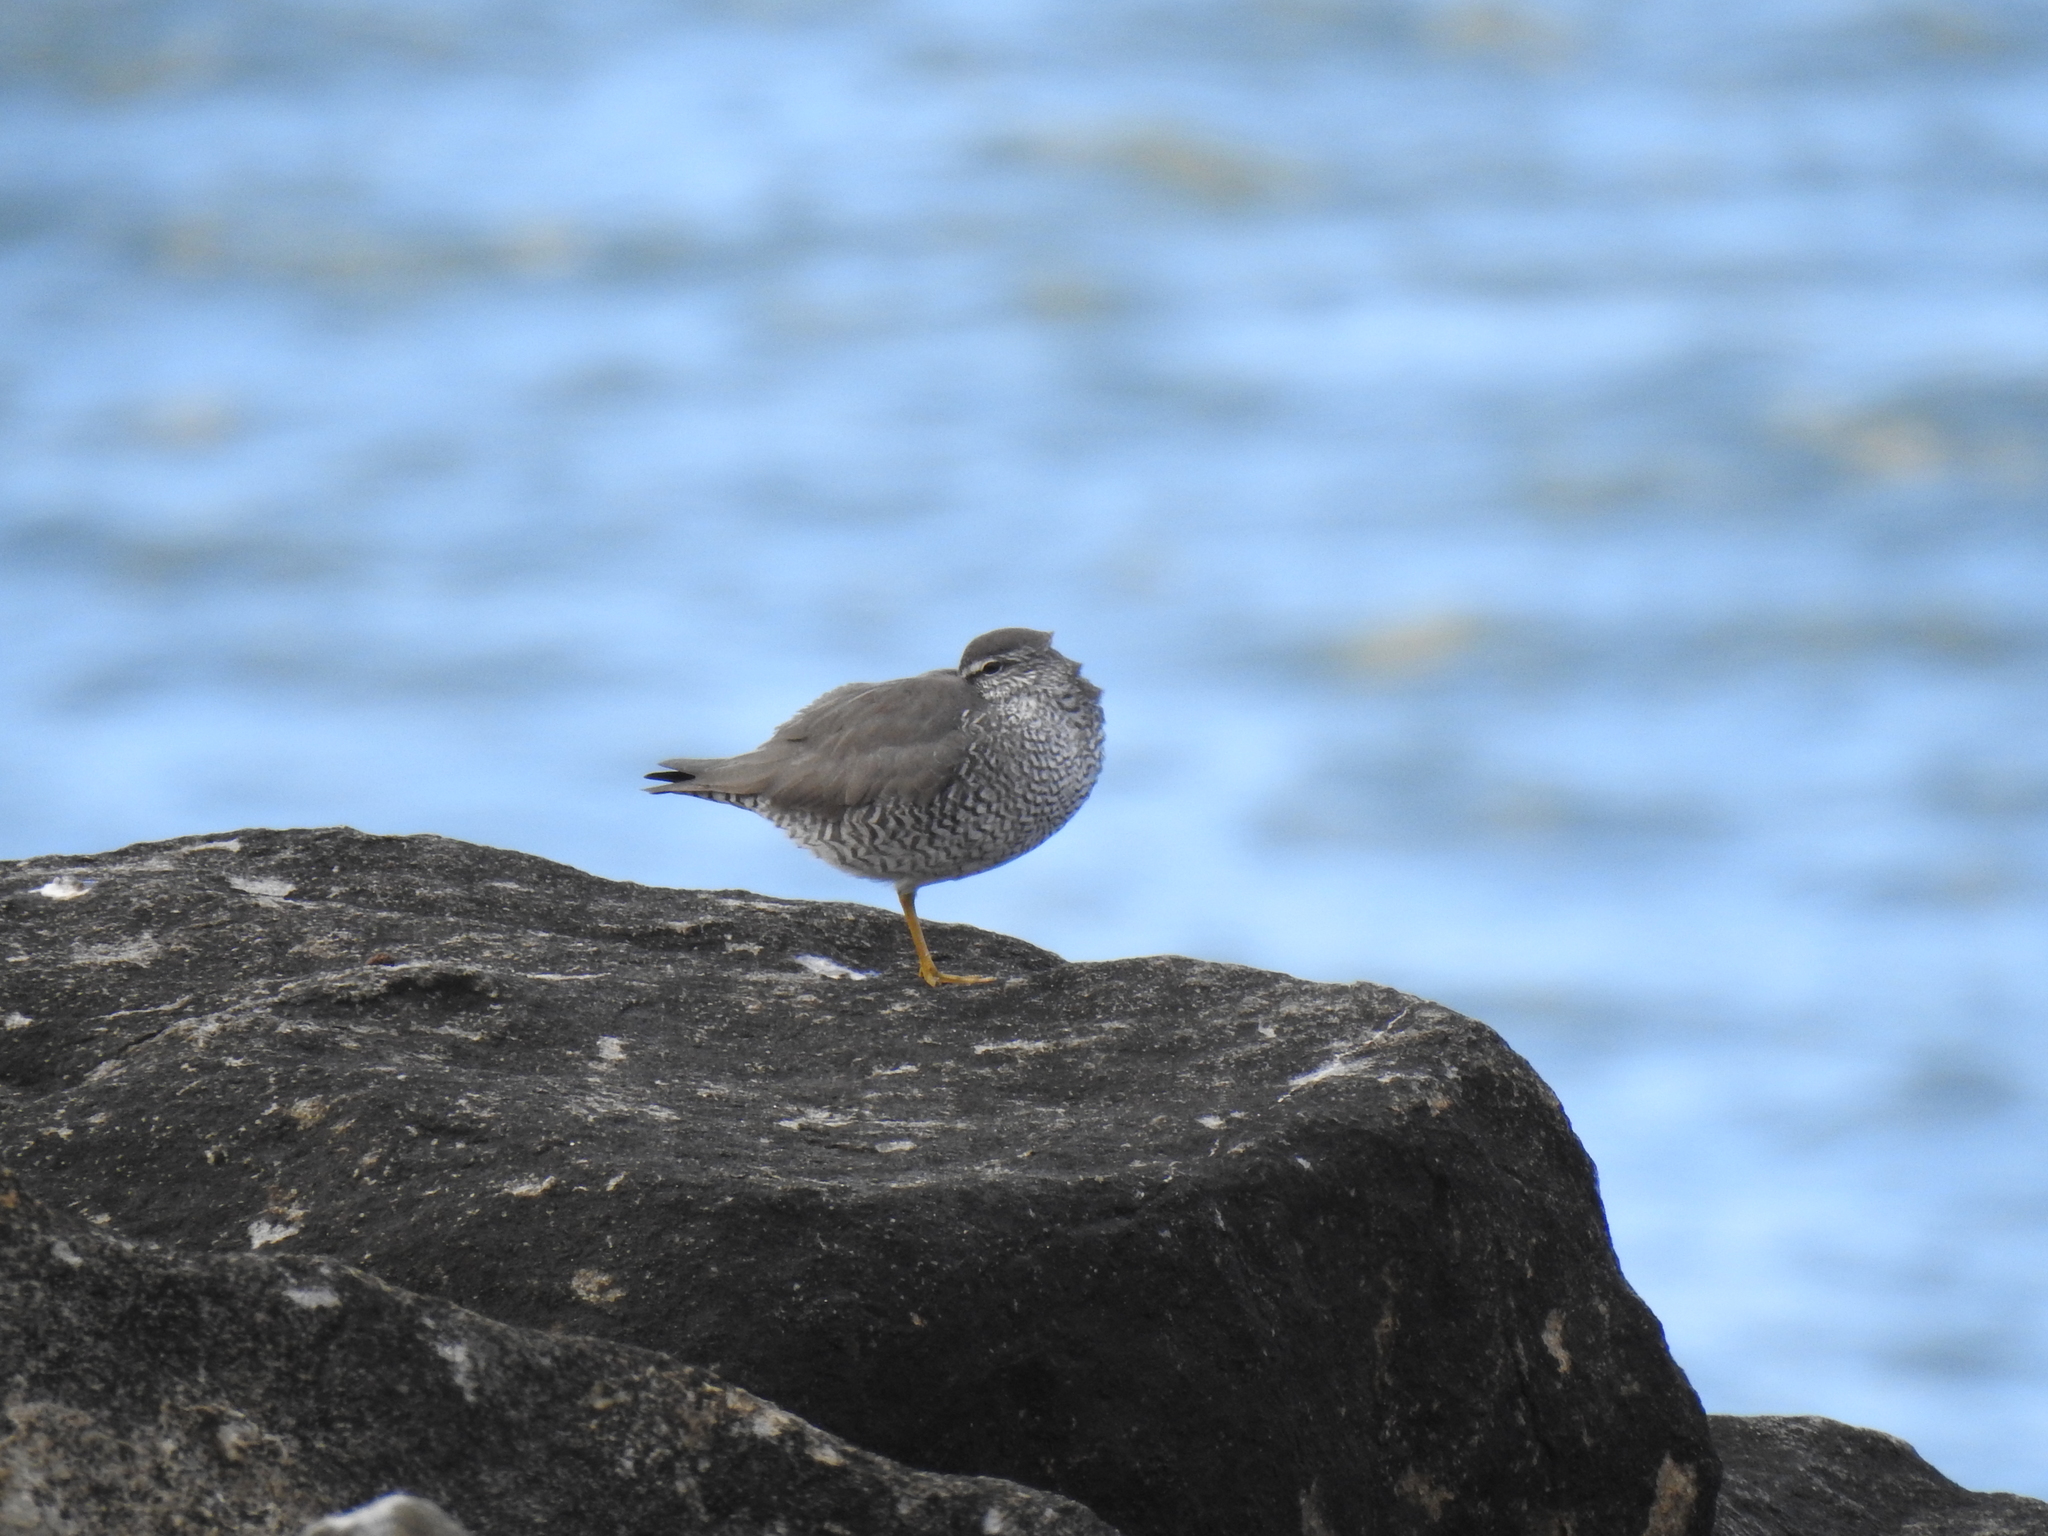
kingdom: Animalia
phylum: Chordata
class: Aves
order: Charadriiformes
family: Scolopacidae
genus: Tringa
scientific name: Tringa incana
